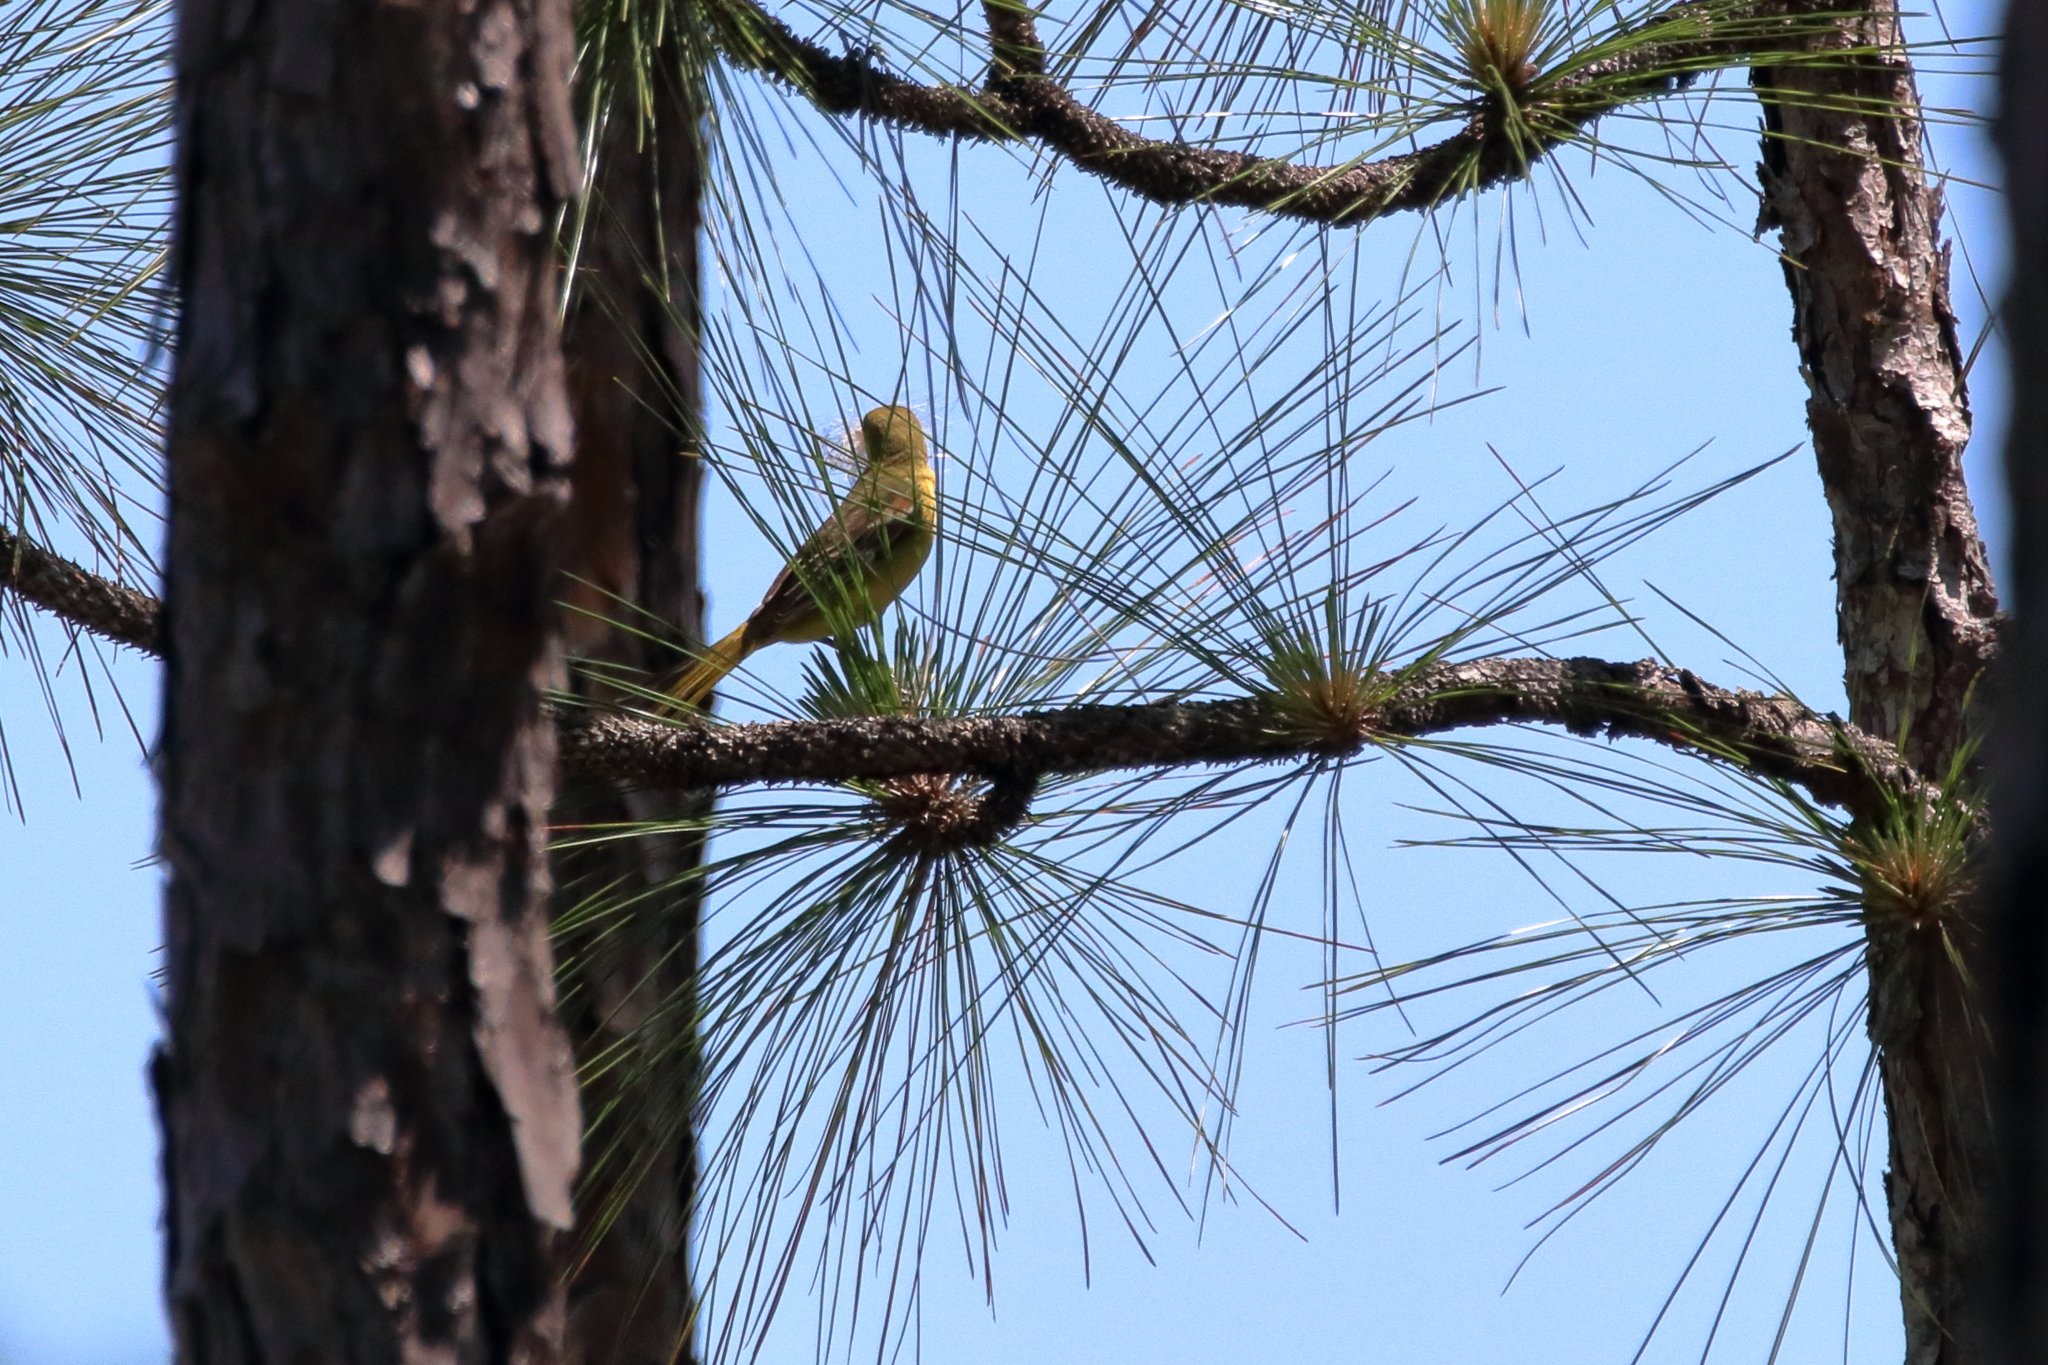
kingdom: Animalia
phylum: Chordata
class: Aves
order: Passeriformes
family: Icteridae
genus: Icterus
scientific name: Icterus spurius
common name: Orchard oriole
